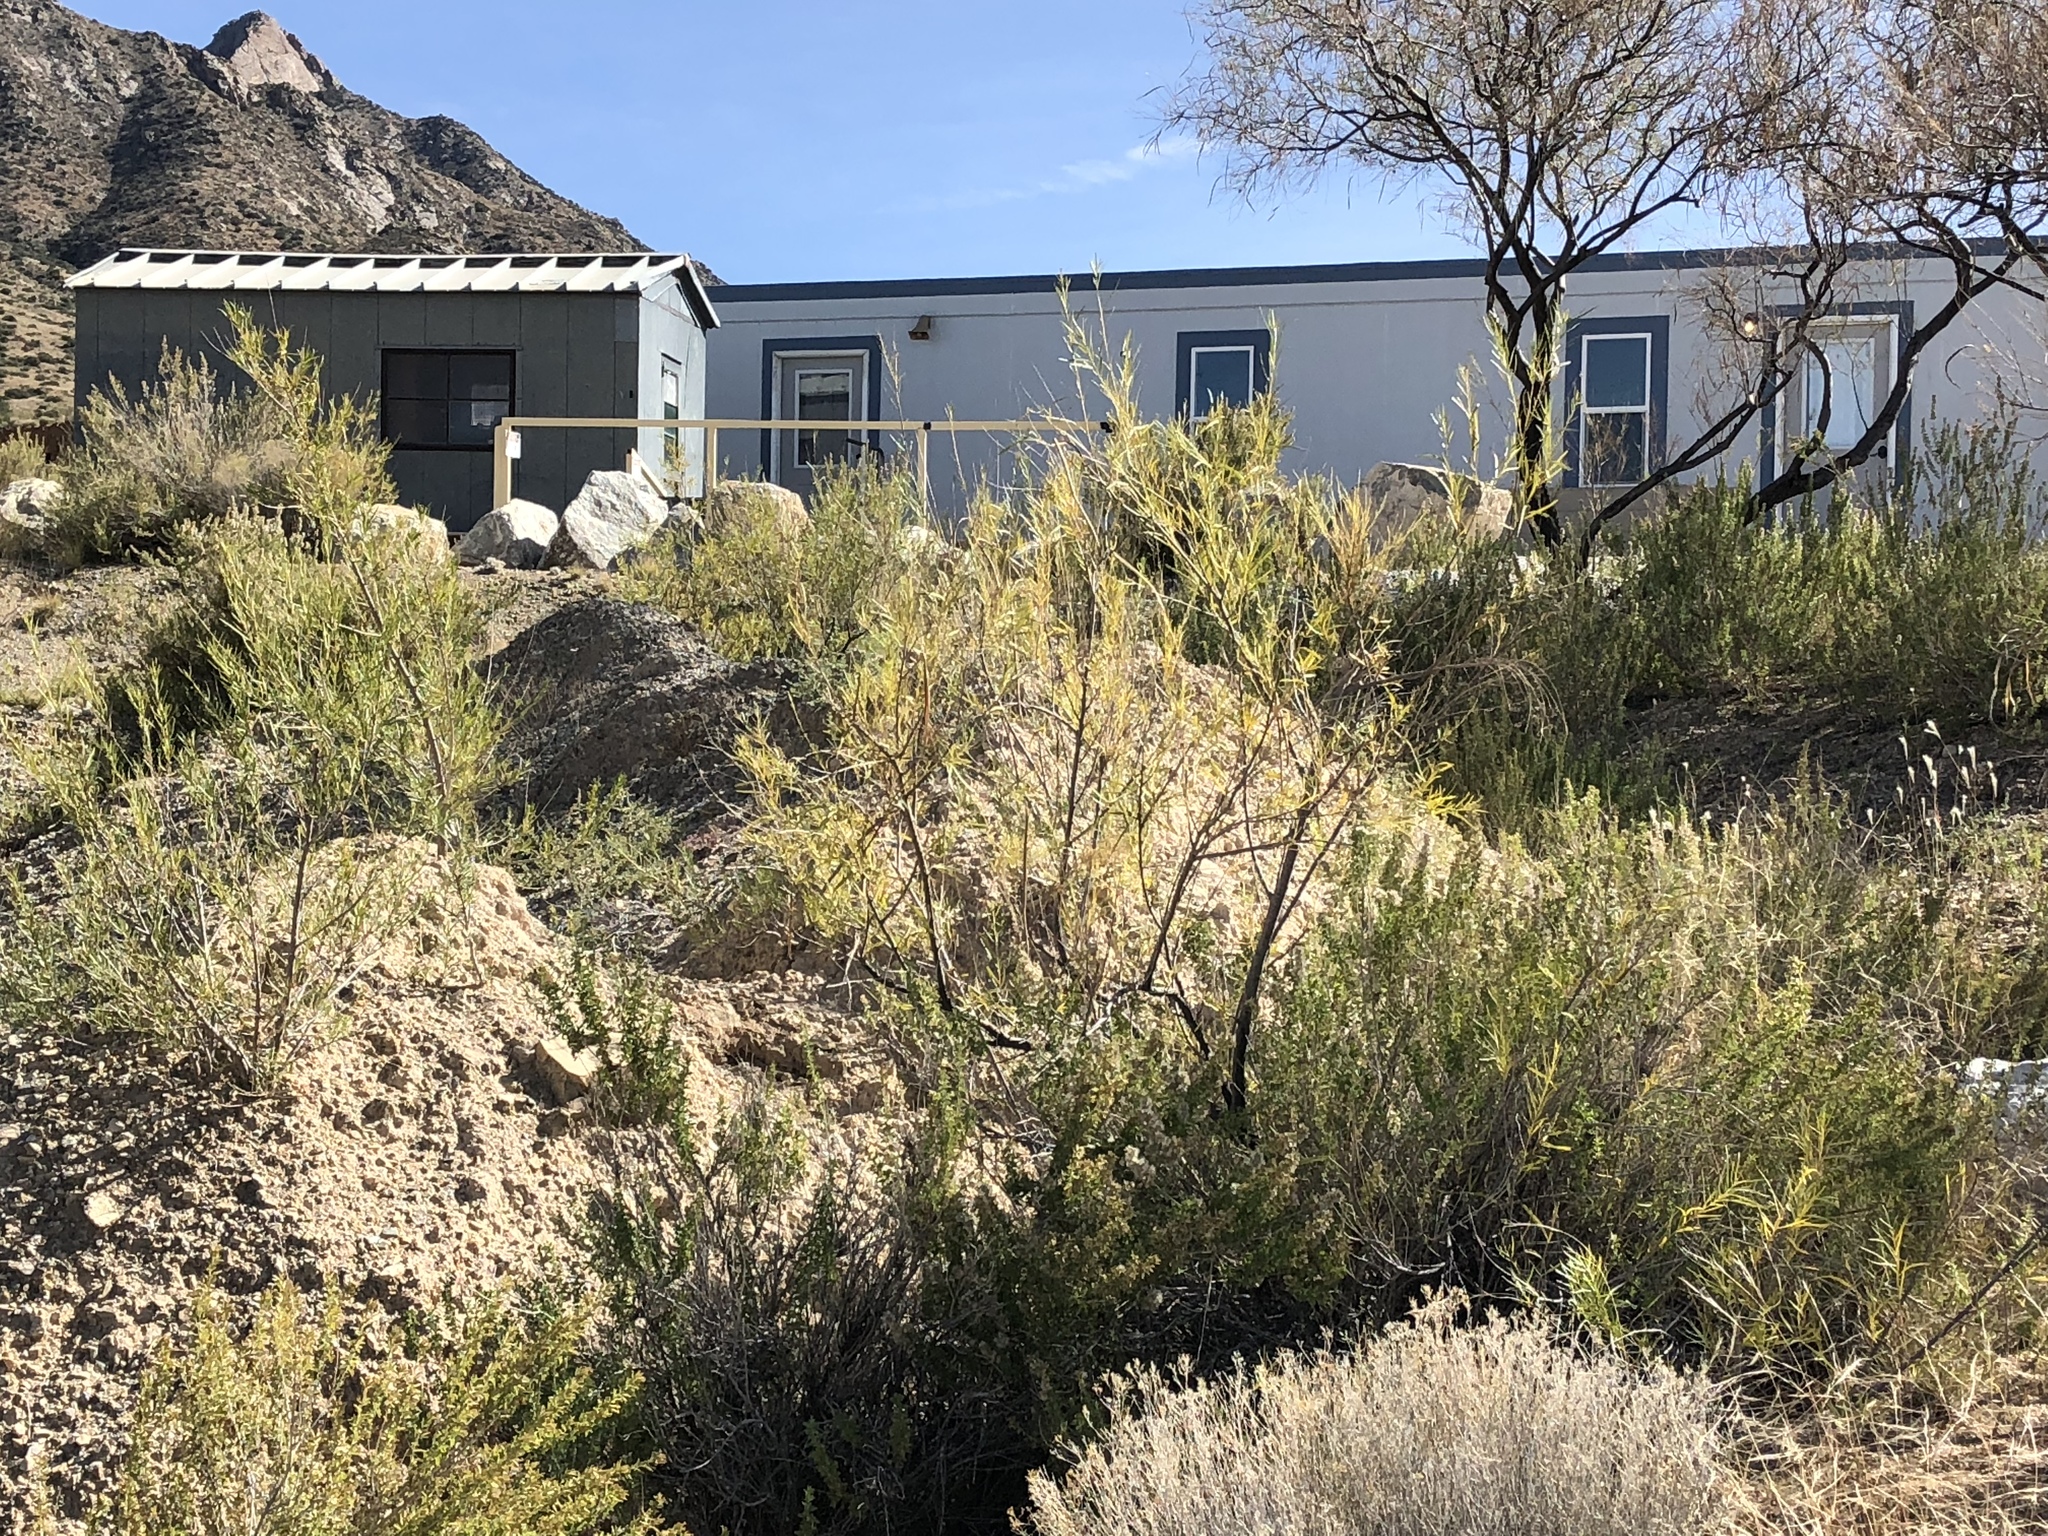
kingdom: Plantae
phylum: Tracheophyta
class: Magnoliopsida
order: Lamiales
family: Bignoniaceae
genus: Chilopsis
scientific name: Chilopsis linearis
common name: Desert-willow
